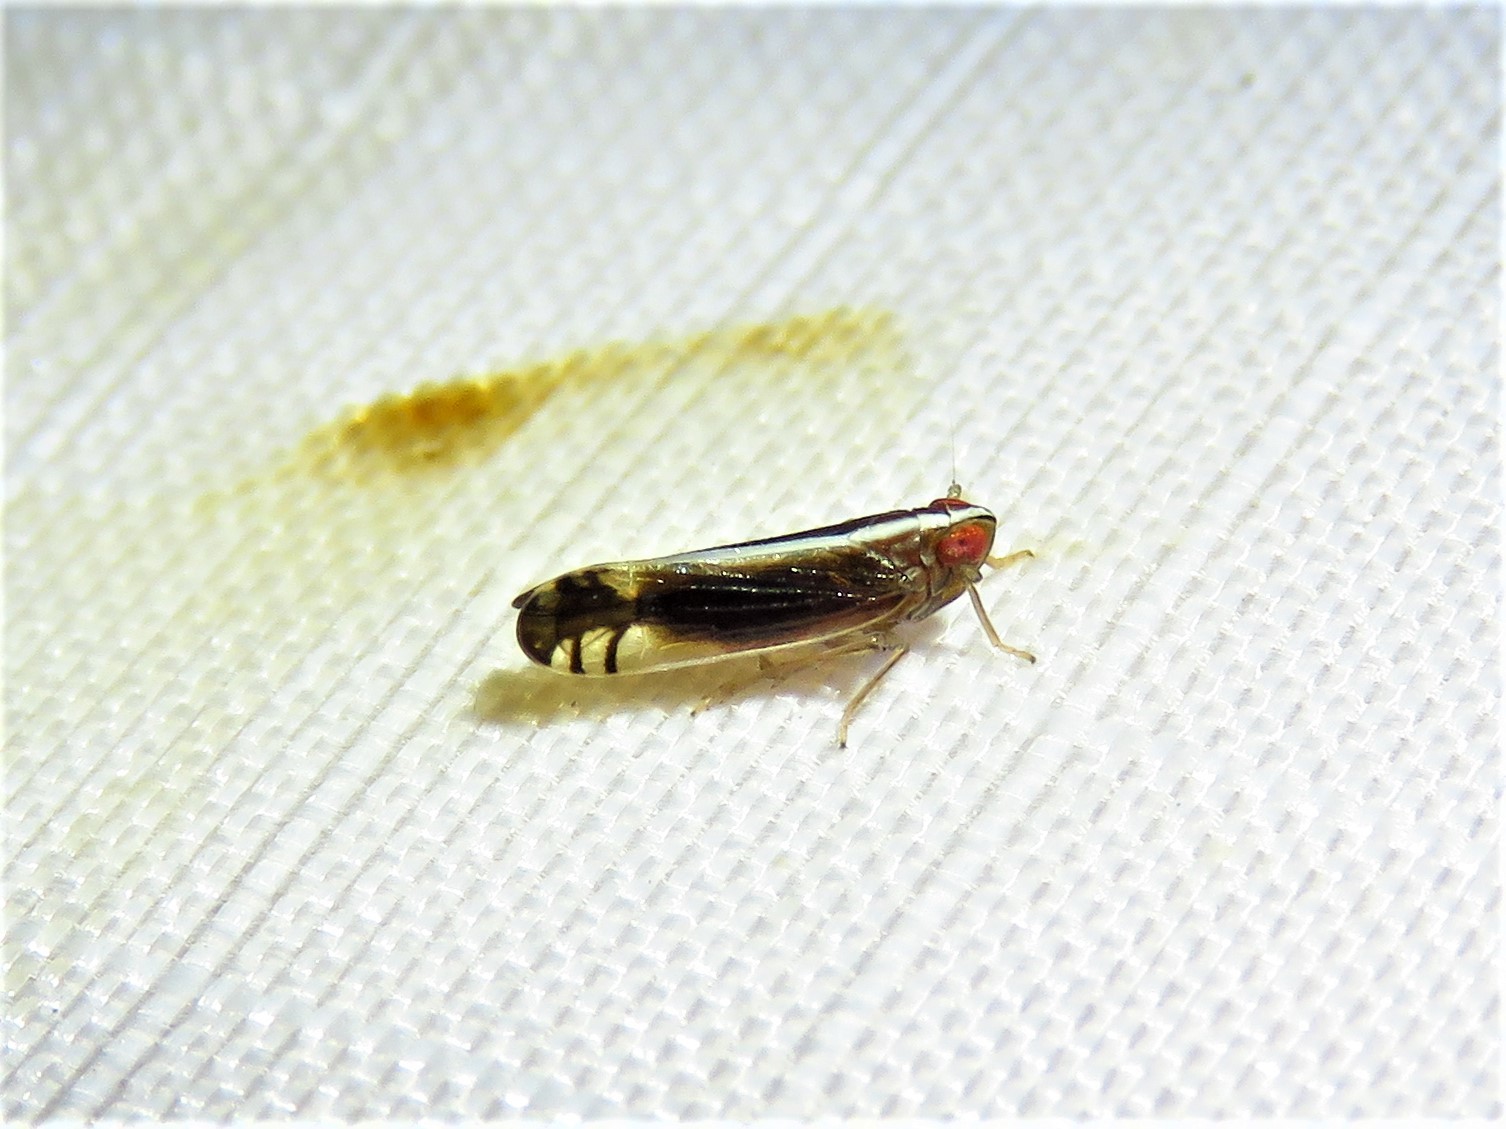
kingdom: Animalia
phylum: Arthropoda
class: Insecta
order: Hemiptera
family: Delphacidae
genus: Stenocranus
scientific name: Stenocranus brunneus
